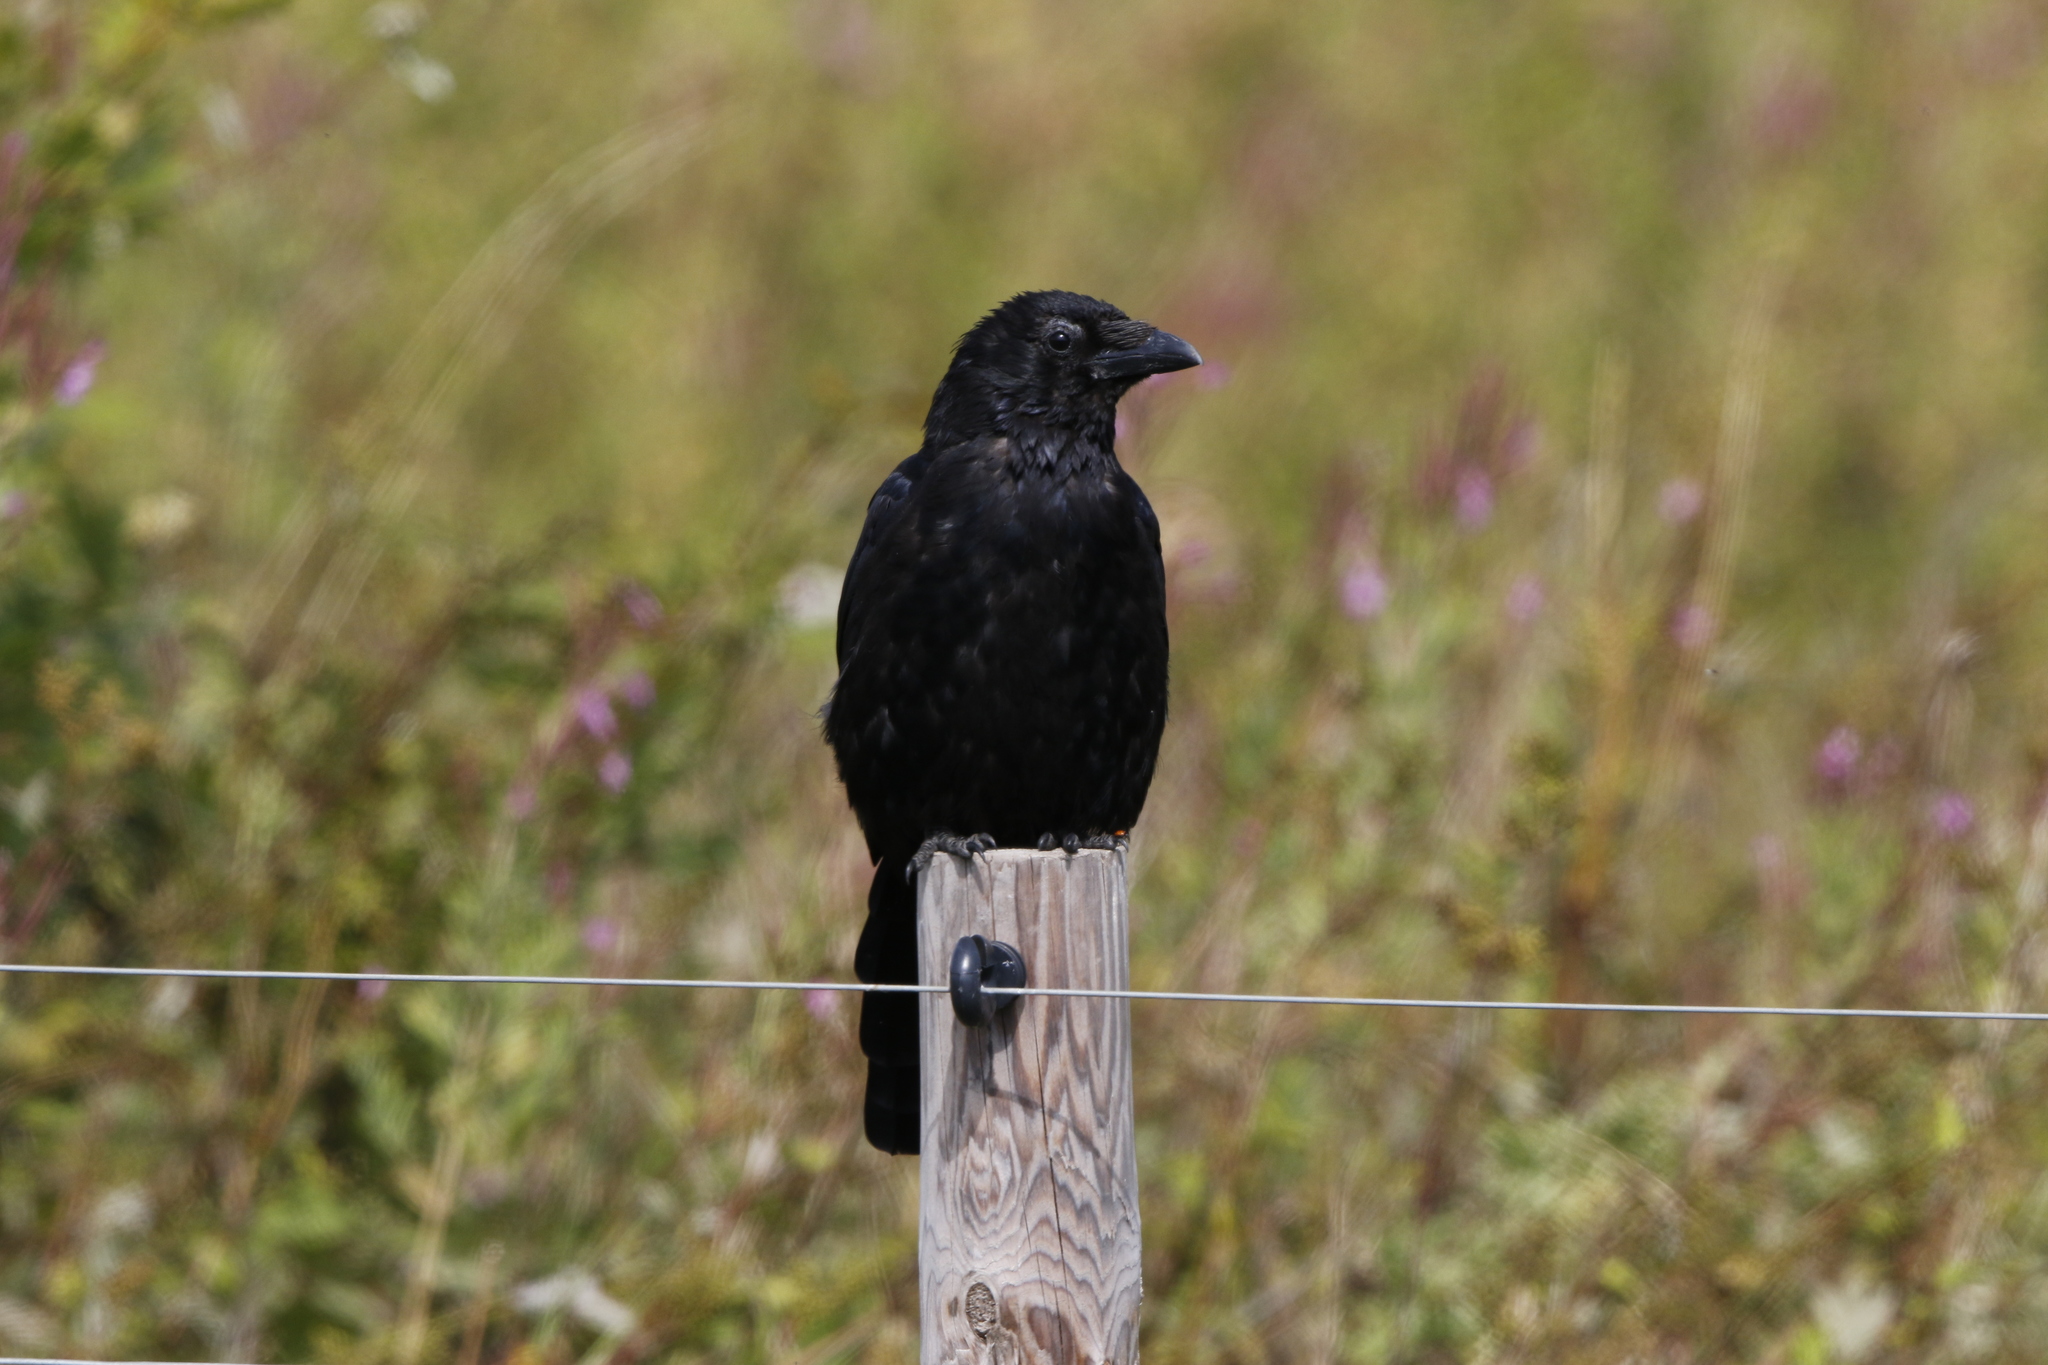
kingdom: Animalia
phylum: Chordata
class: Aves
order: Passeriformes
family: Corvidae
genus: Corvus
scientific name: Corvus corone
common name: Carrion crow
